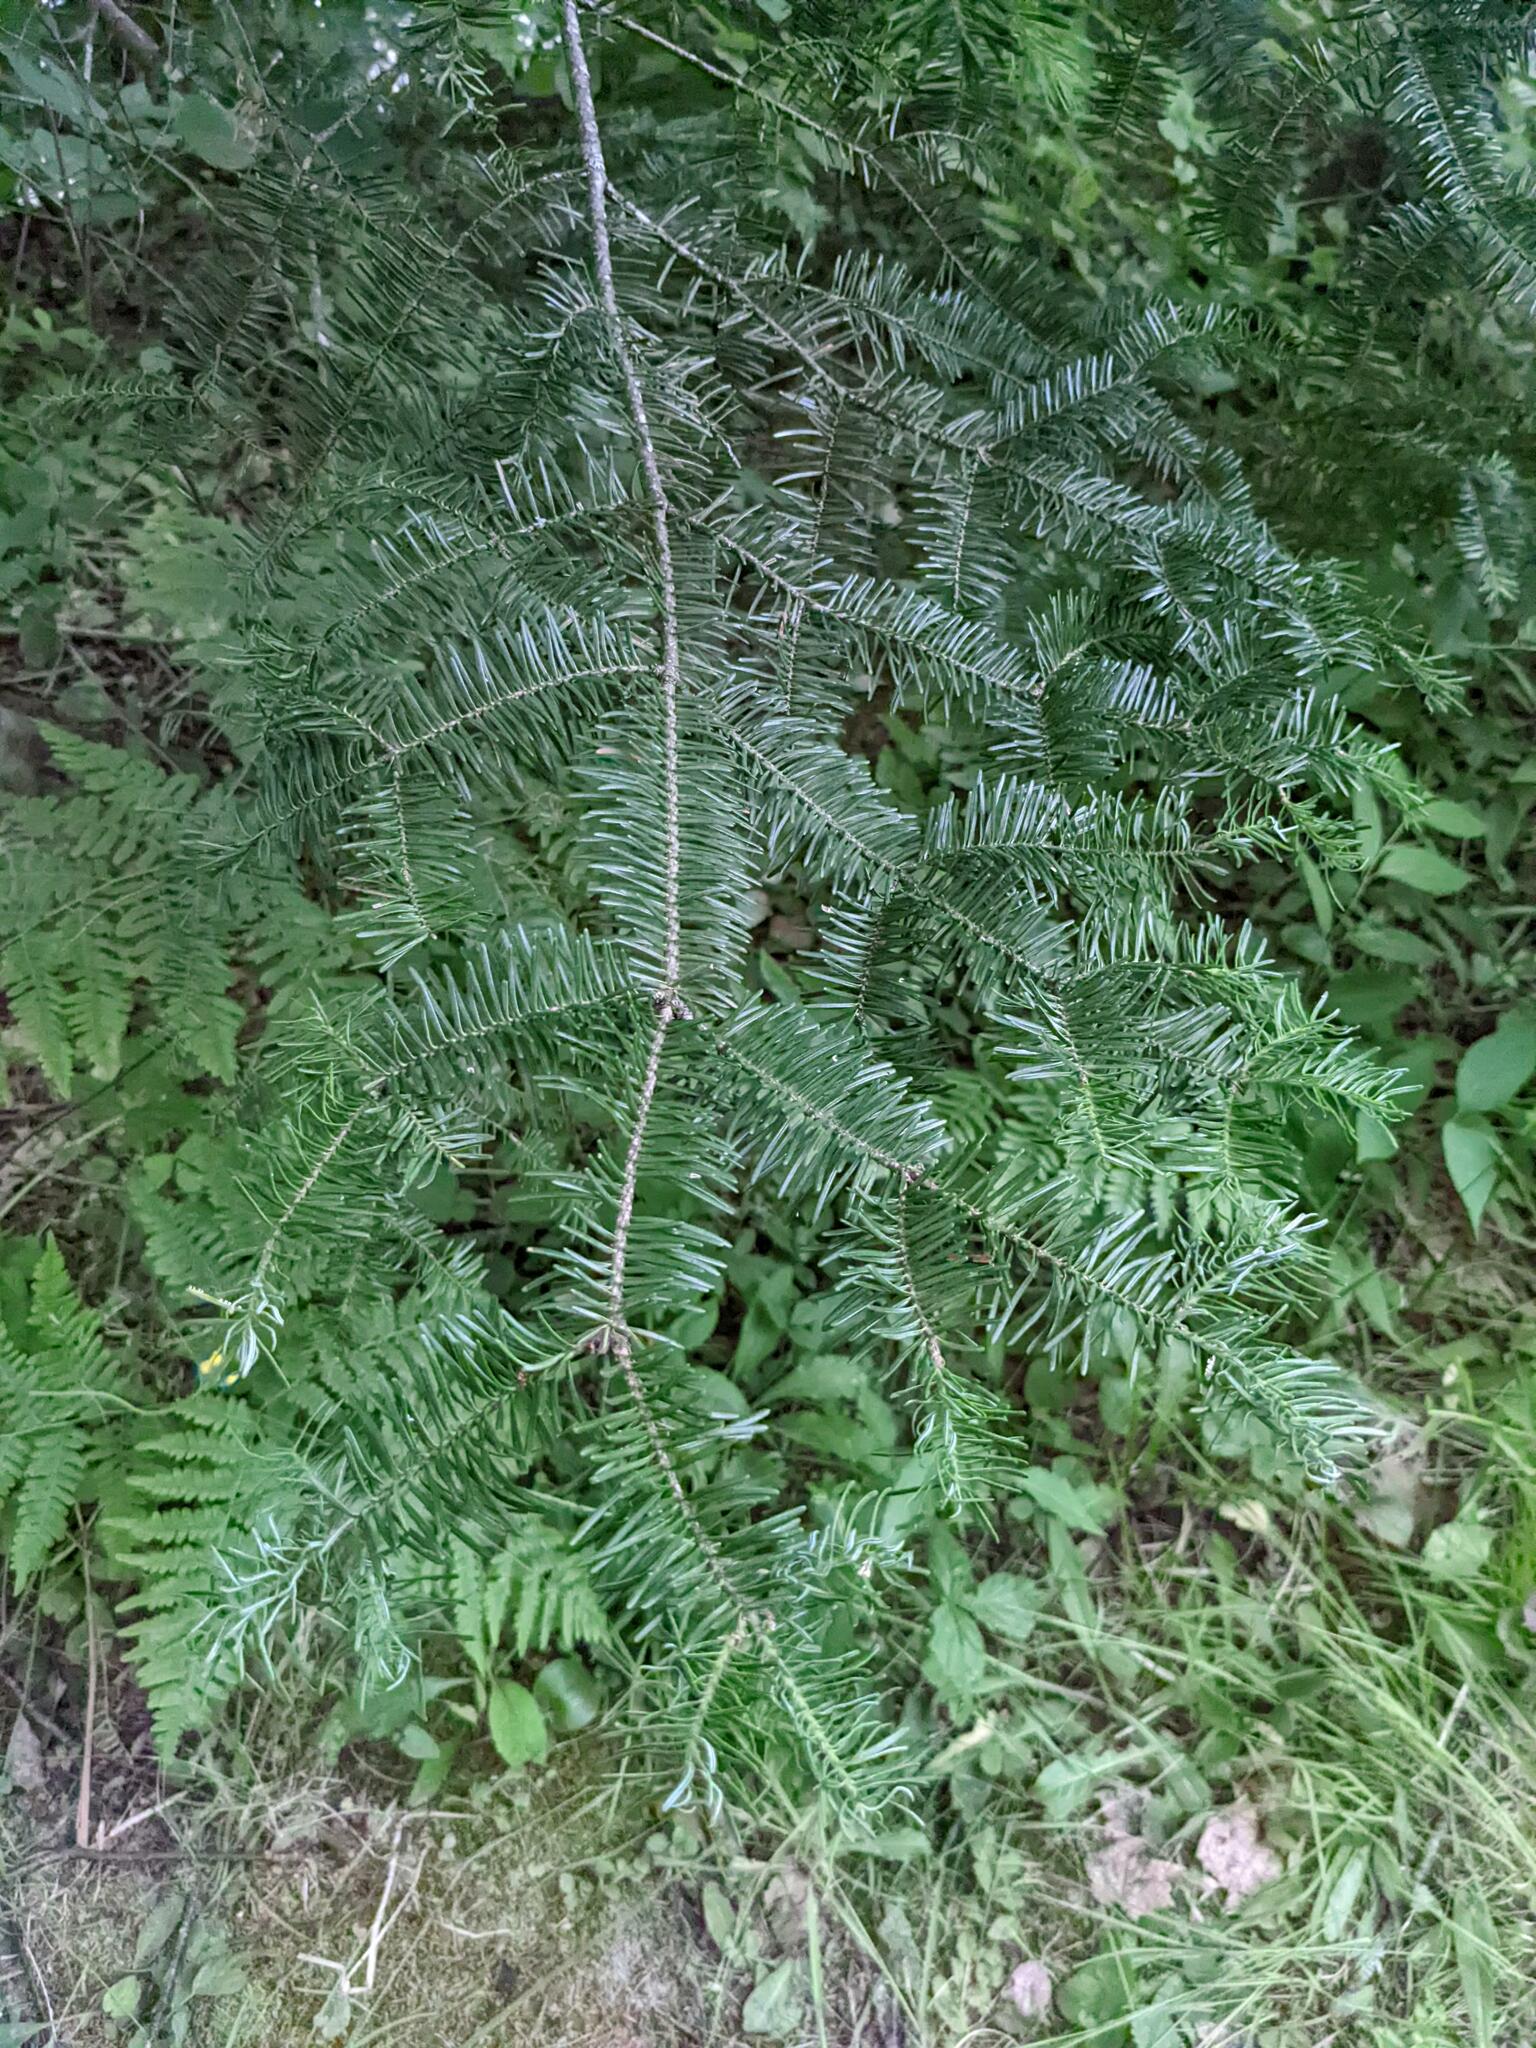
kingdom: Plantae
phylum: Tracheophyta
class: Pinopsida
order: Pinales
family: Pinaceae
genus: Abies
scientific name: Abies balsamea
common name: Balsam fir
